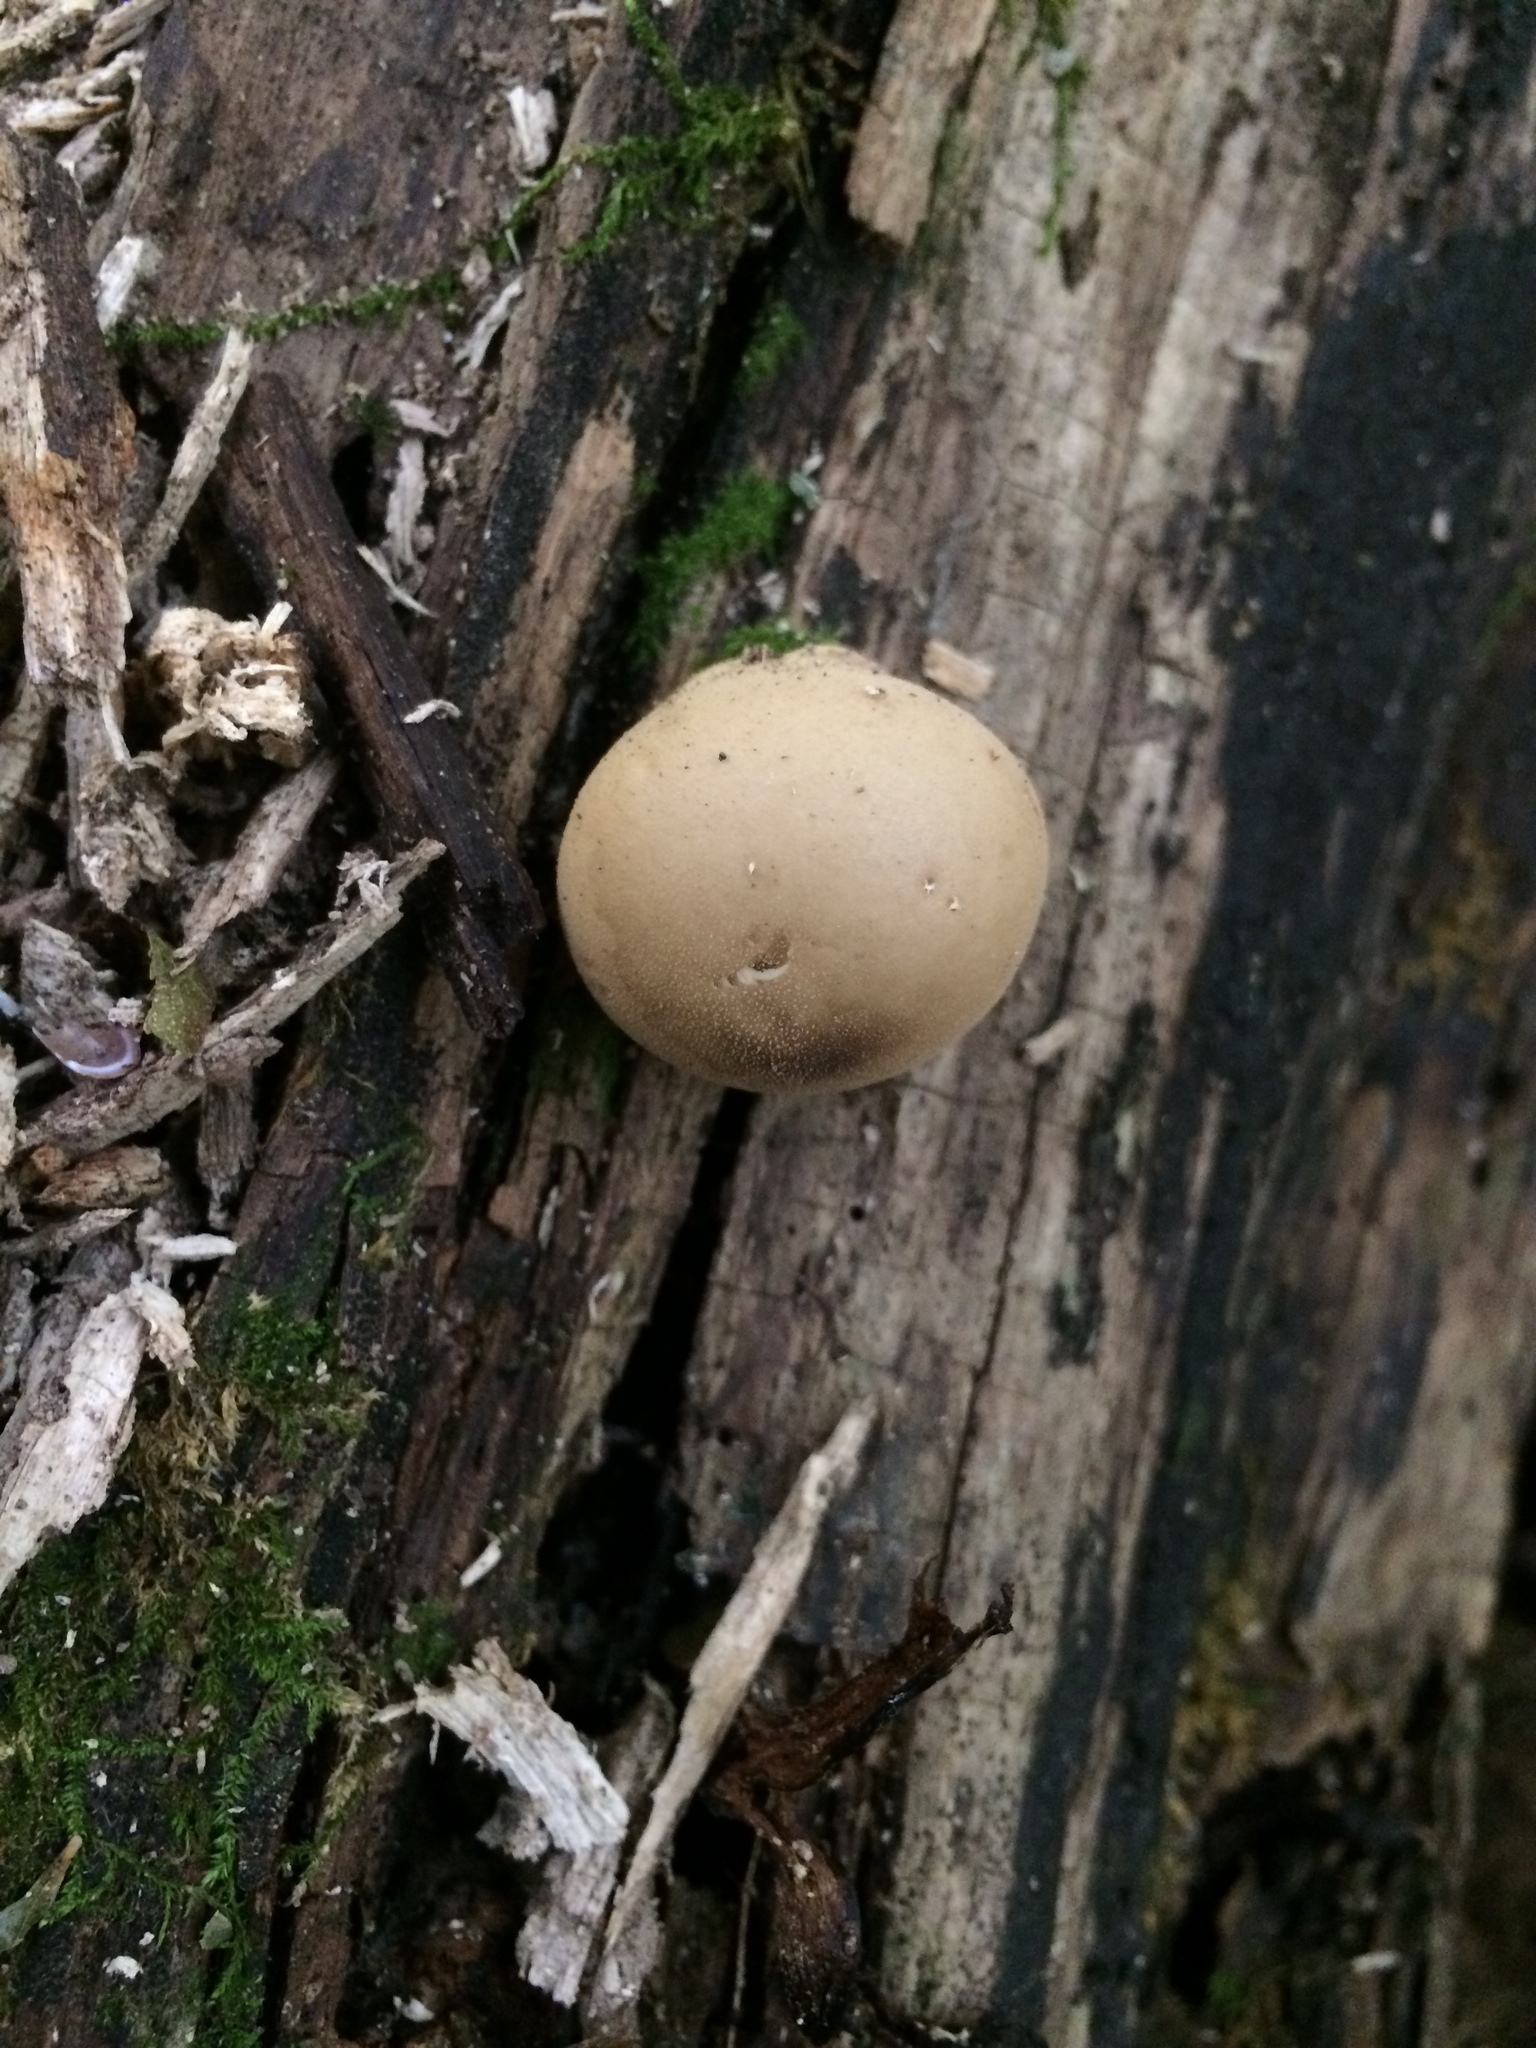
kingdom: Fungi
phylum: Basidiomycota
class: Agaricomycetes
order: Agaricales
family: Lycoperdaceae
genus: Apioperdon
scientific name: Apioperdon pyriforme
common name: Pear-shaped puffball
